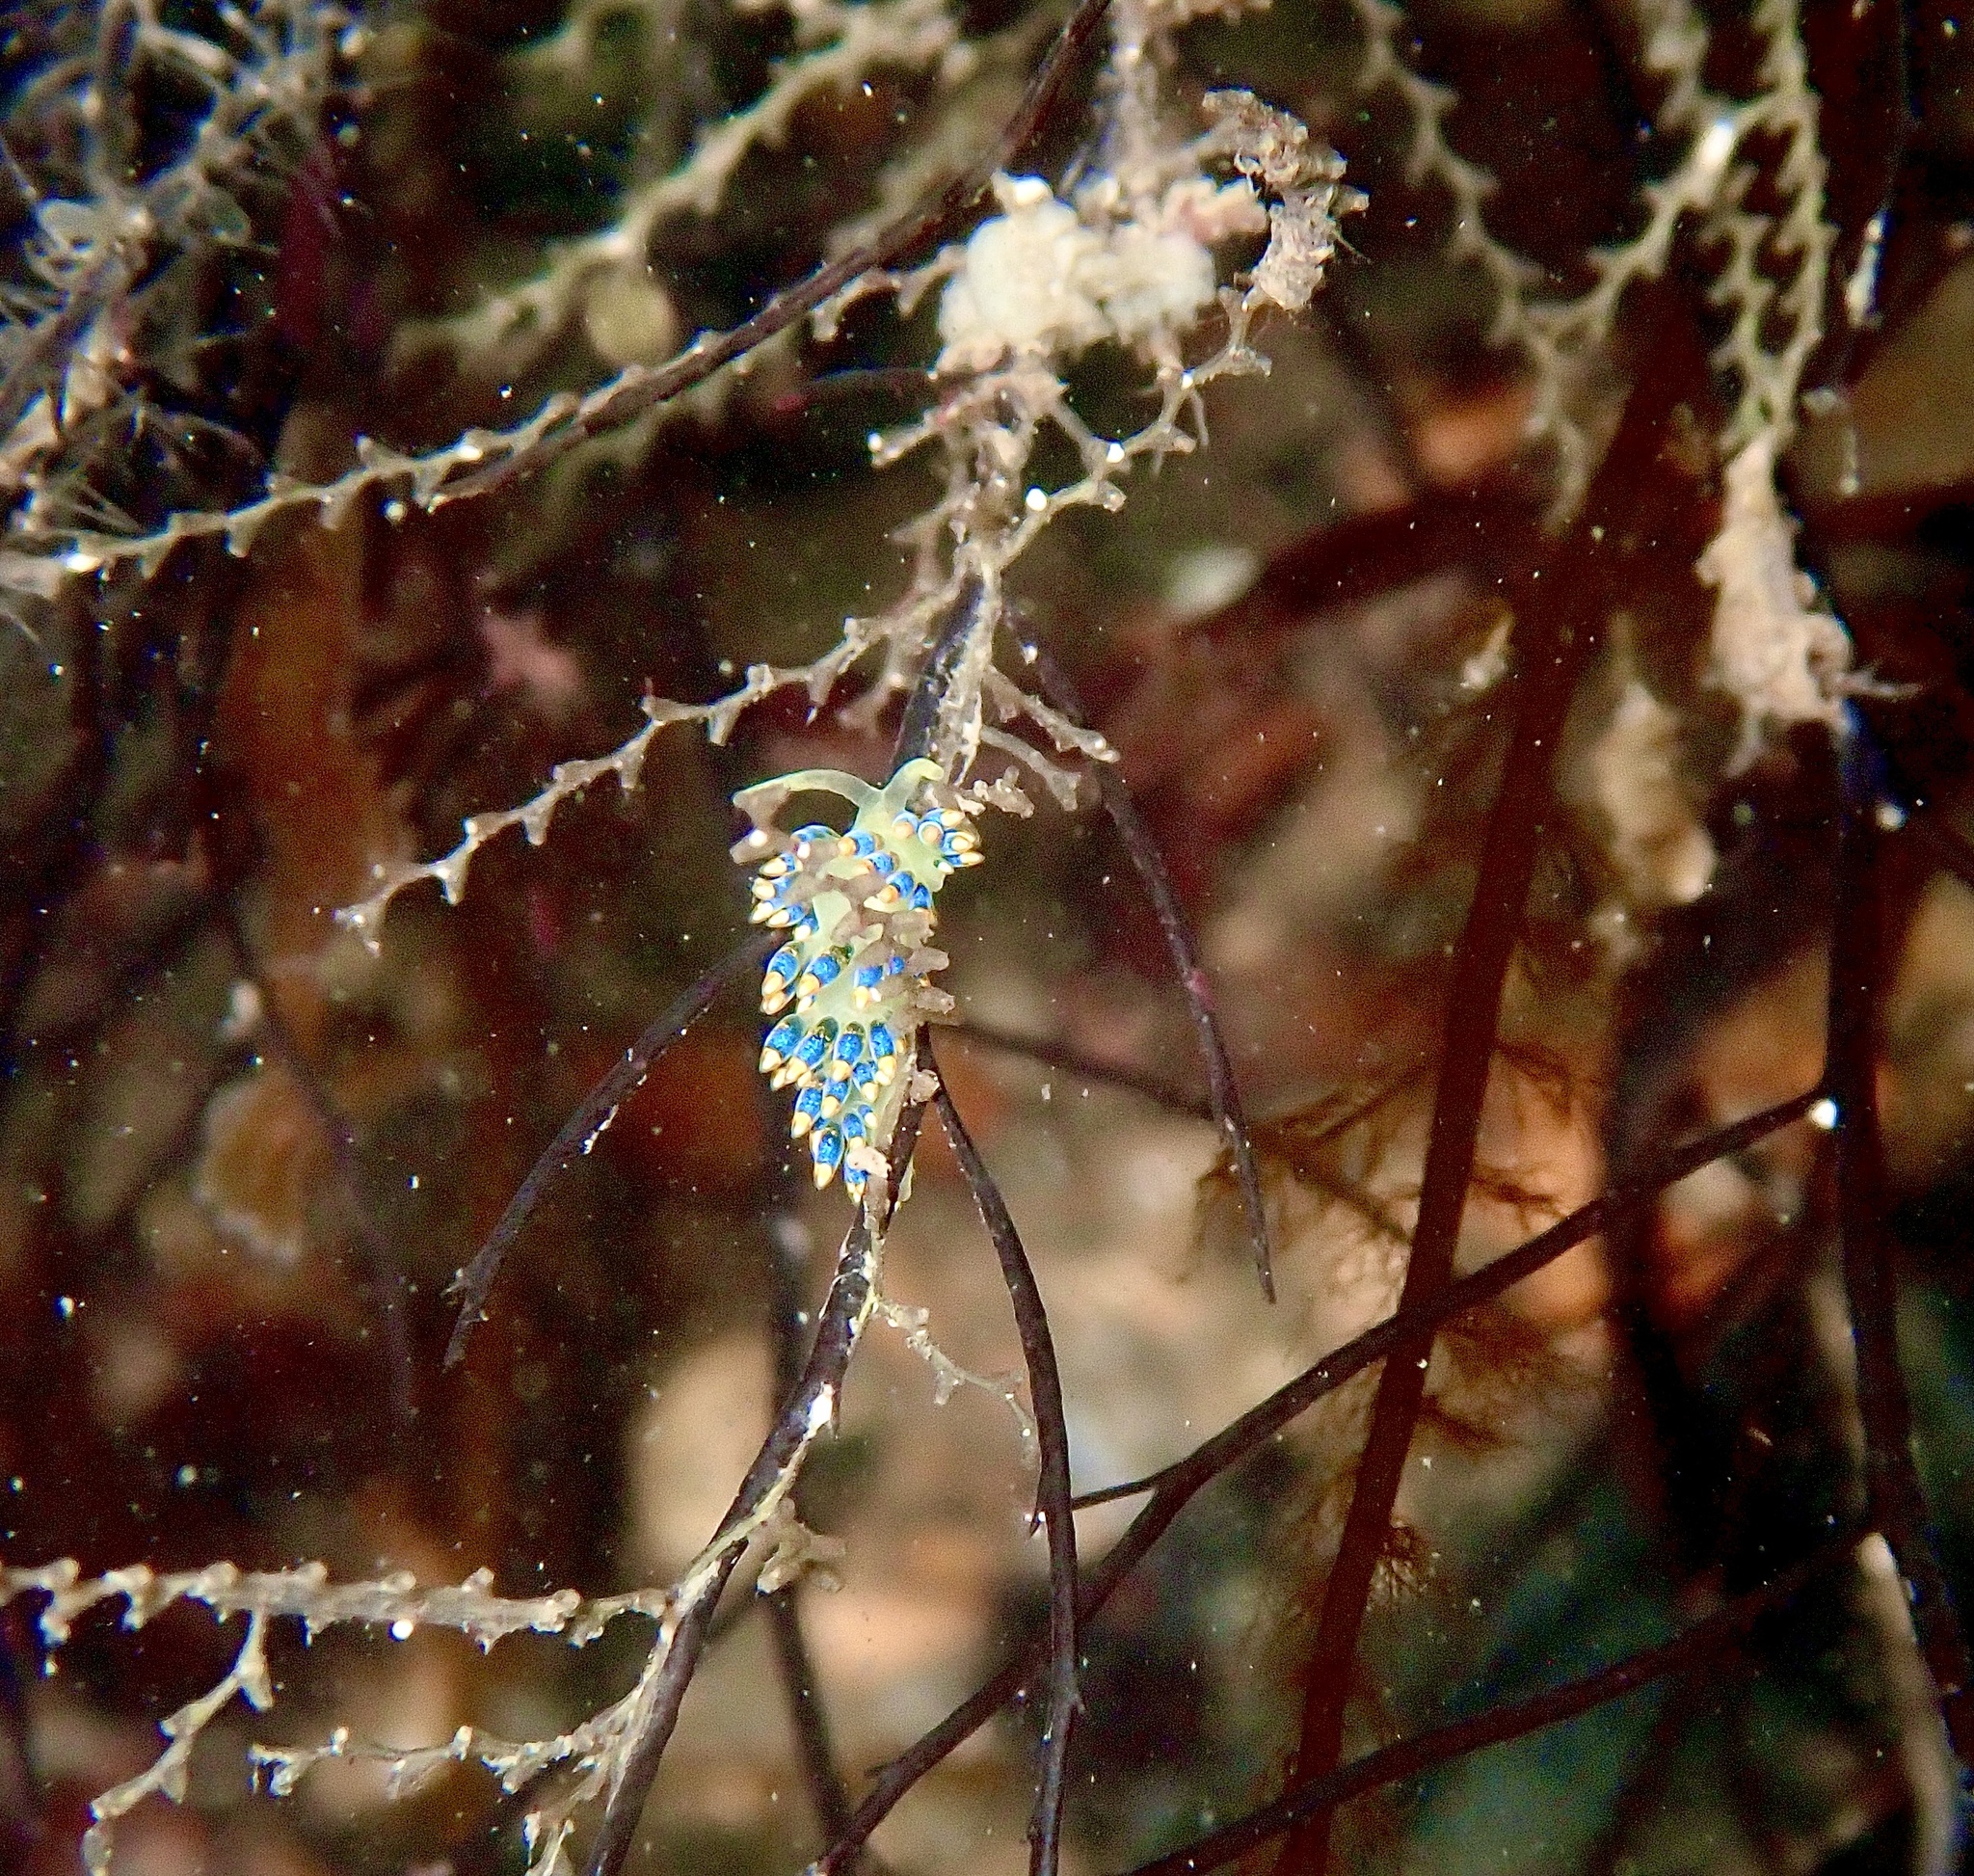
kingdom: Animalia
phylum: Mollusca
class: Gastropoda
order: Nudibranchia
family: Trinchesiidae
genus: Trinchesia
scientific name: Trinchesia cuanensis
